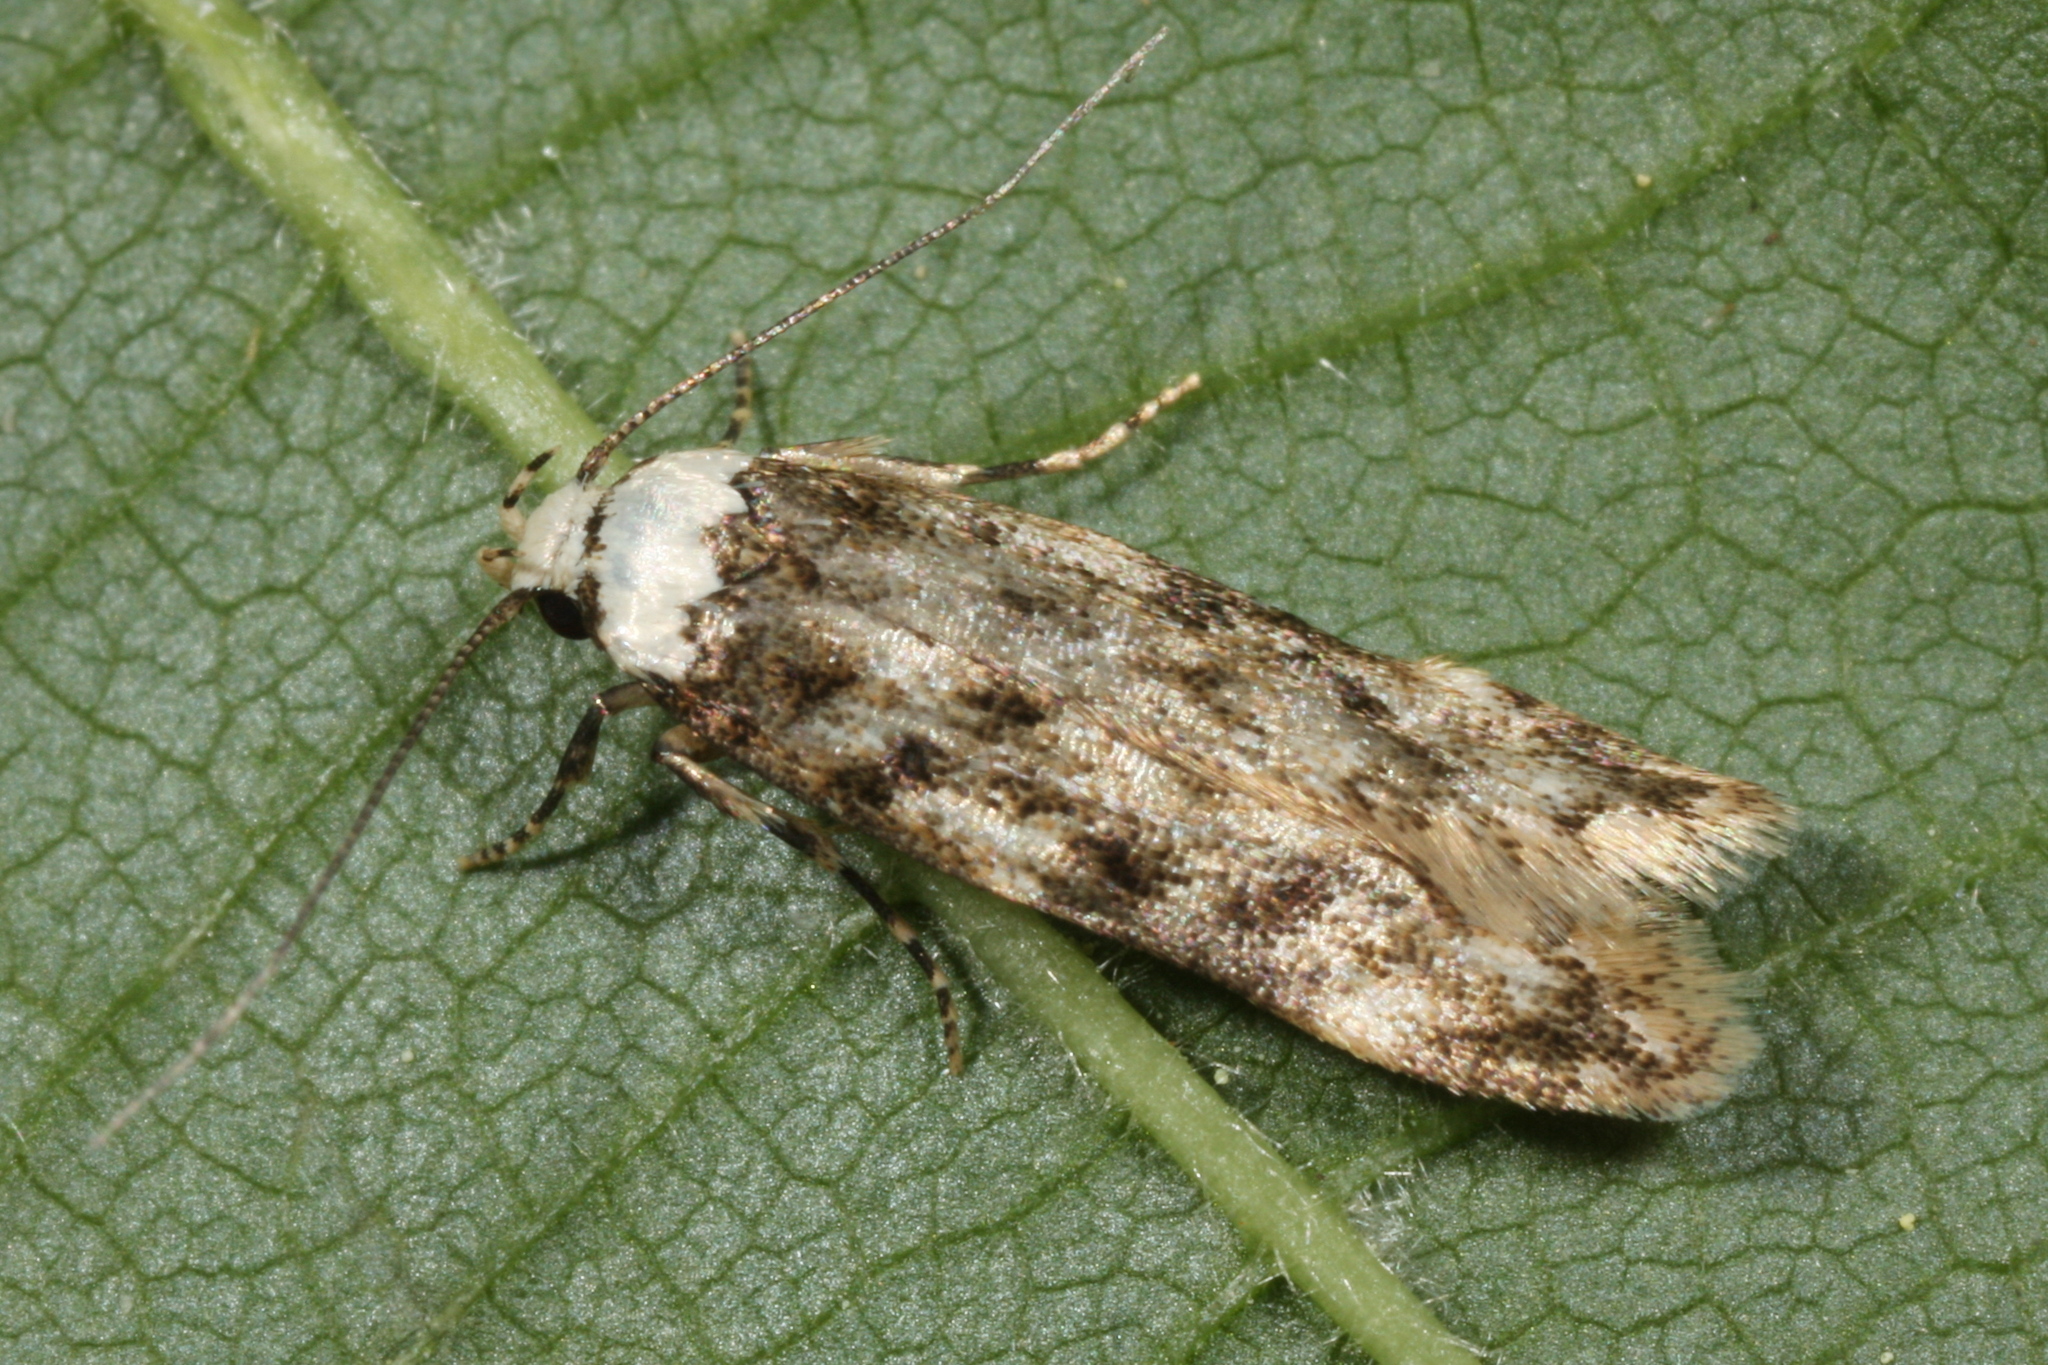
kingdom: Animalia
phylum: Arthropoda
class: Insecta
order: Lepidoptera
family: Oecophoridae
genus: Endrosis
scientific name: Endrosis sarcitrella
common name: White-shouldered house moth
